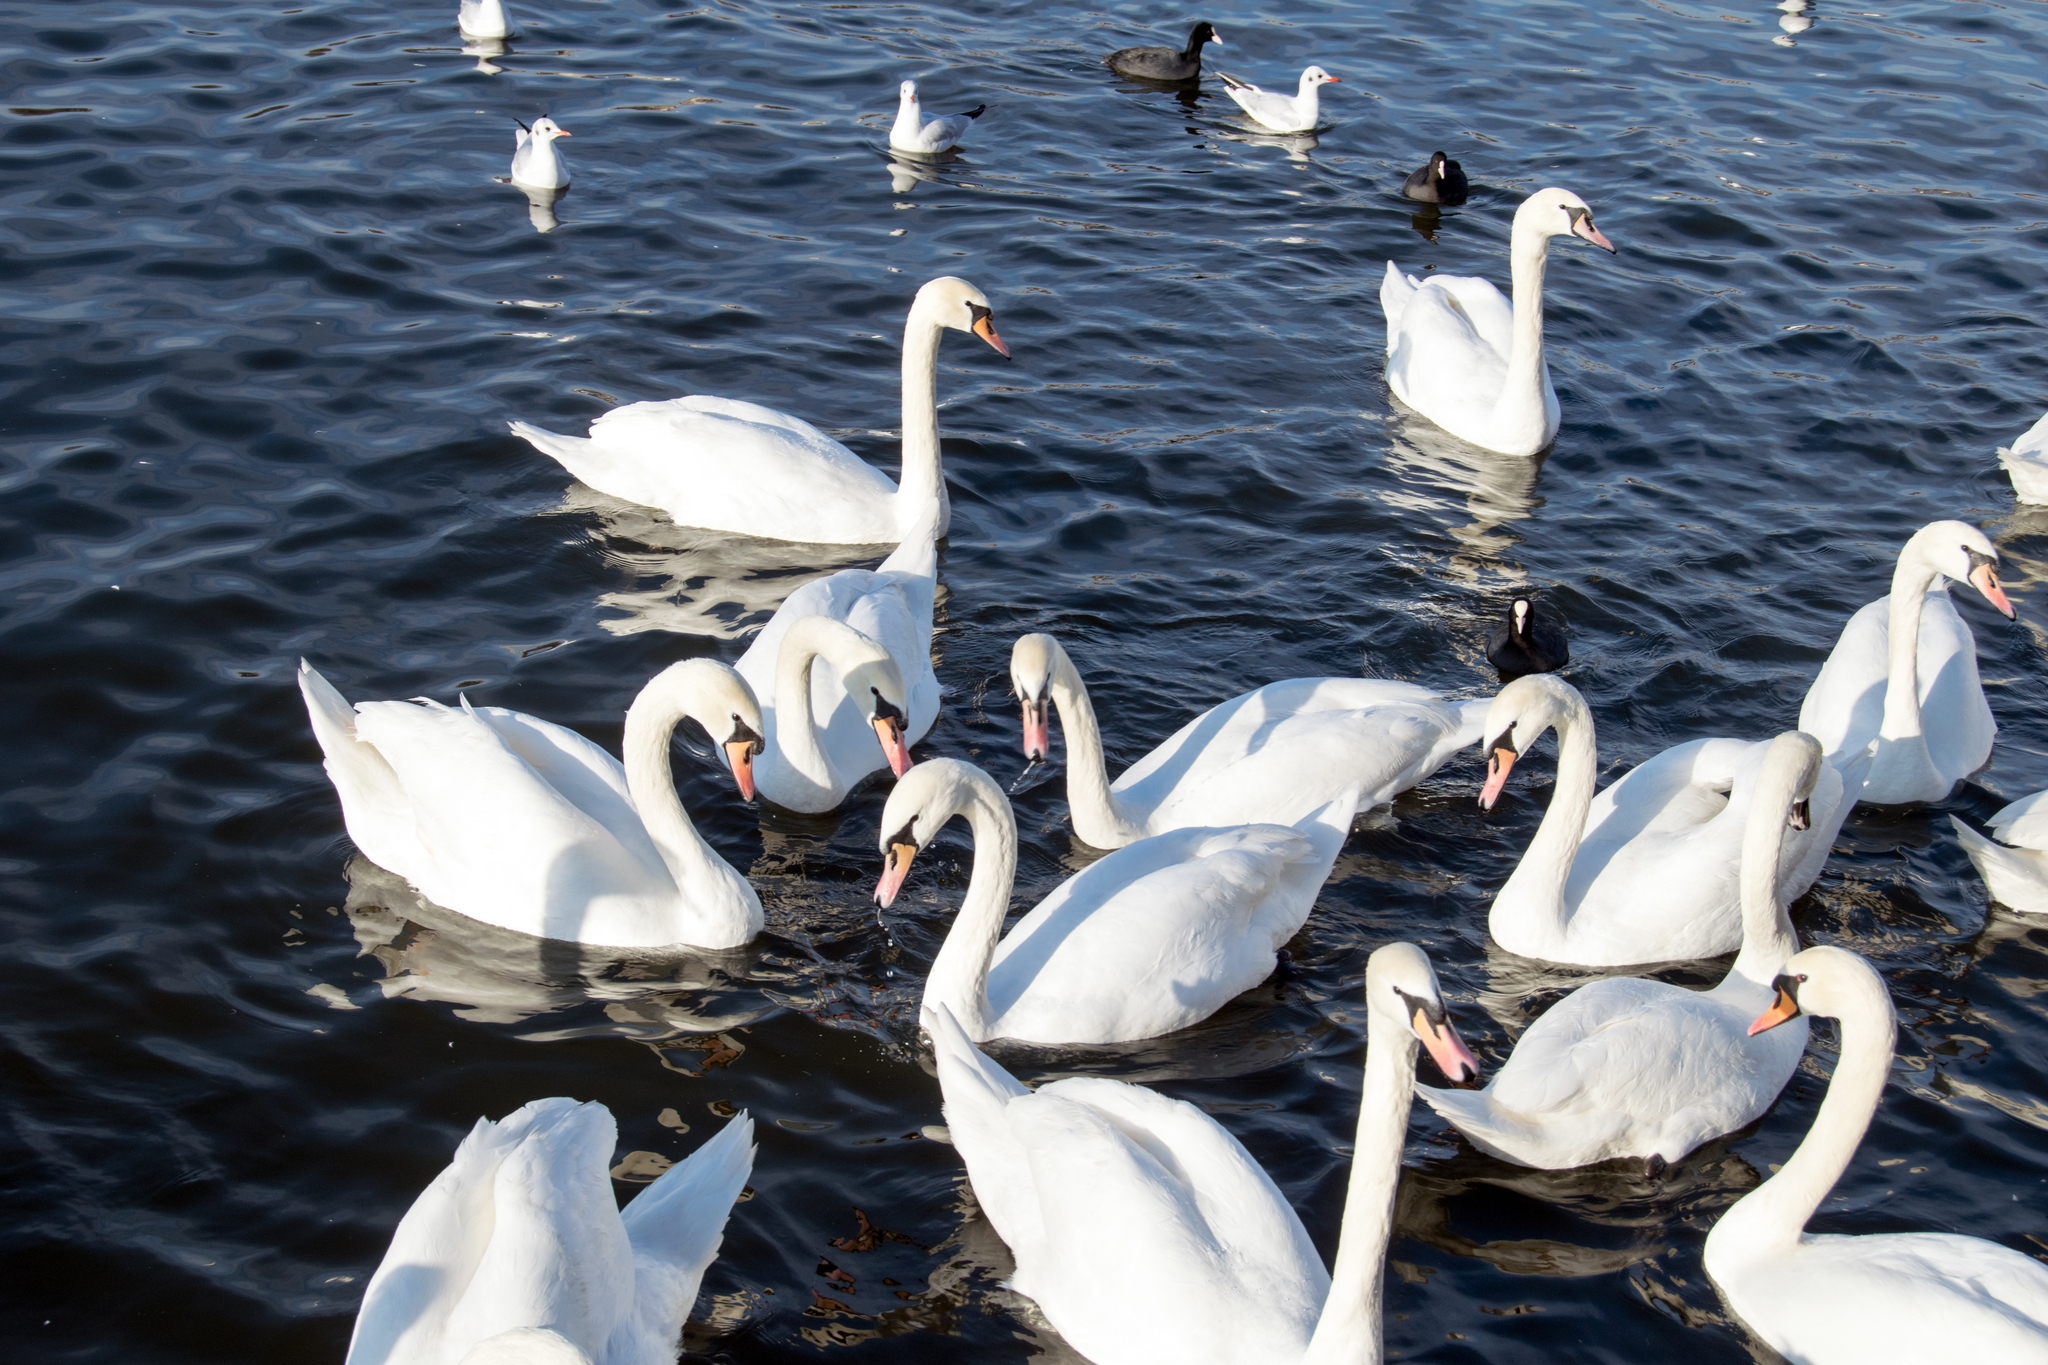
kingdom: Animalia
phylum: Chordata
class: Aves
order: Charadriiformes
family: Laridae
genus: Chroicocephalus
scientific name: Chroicocephalus ridibundus
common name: Black-headed gull
